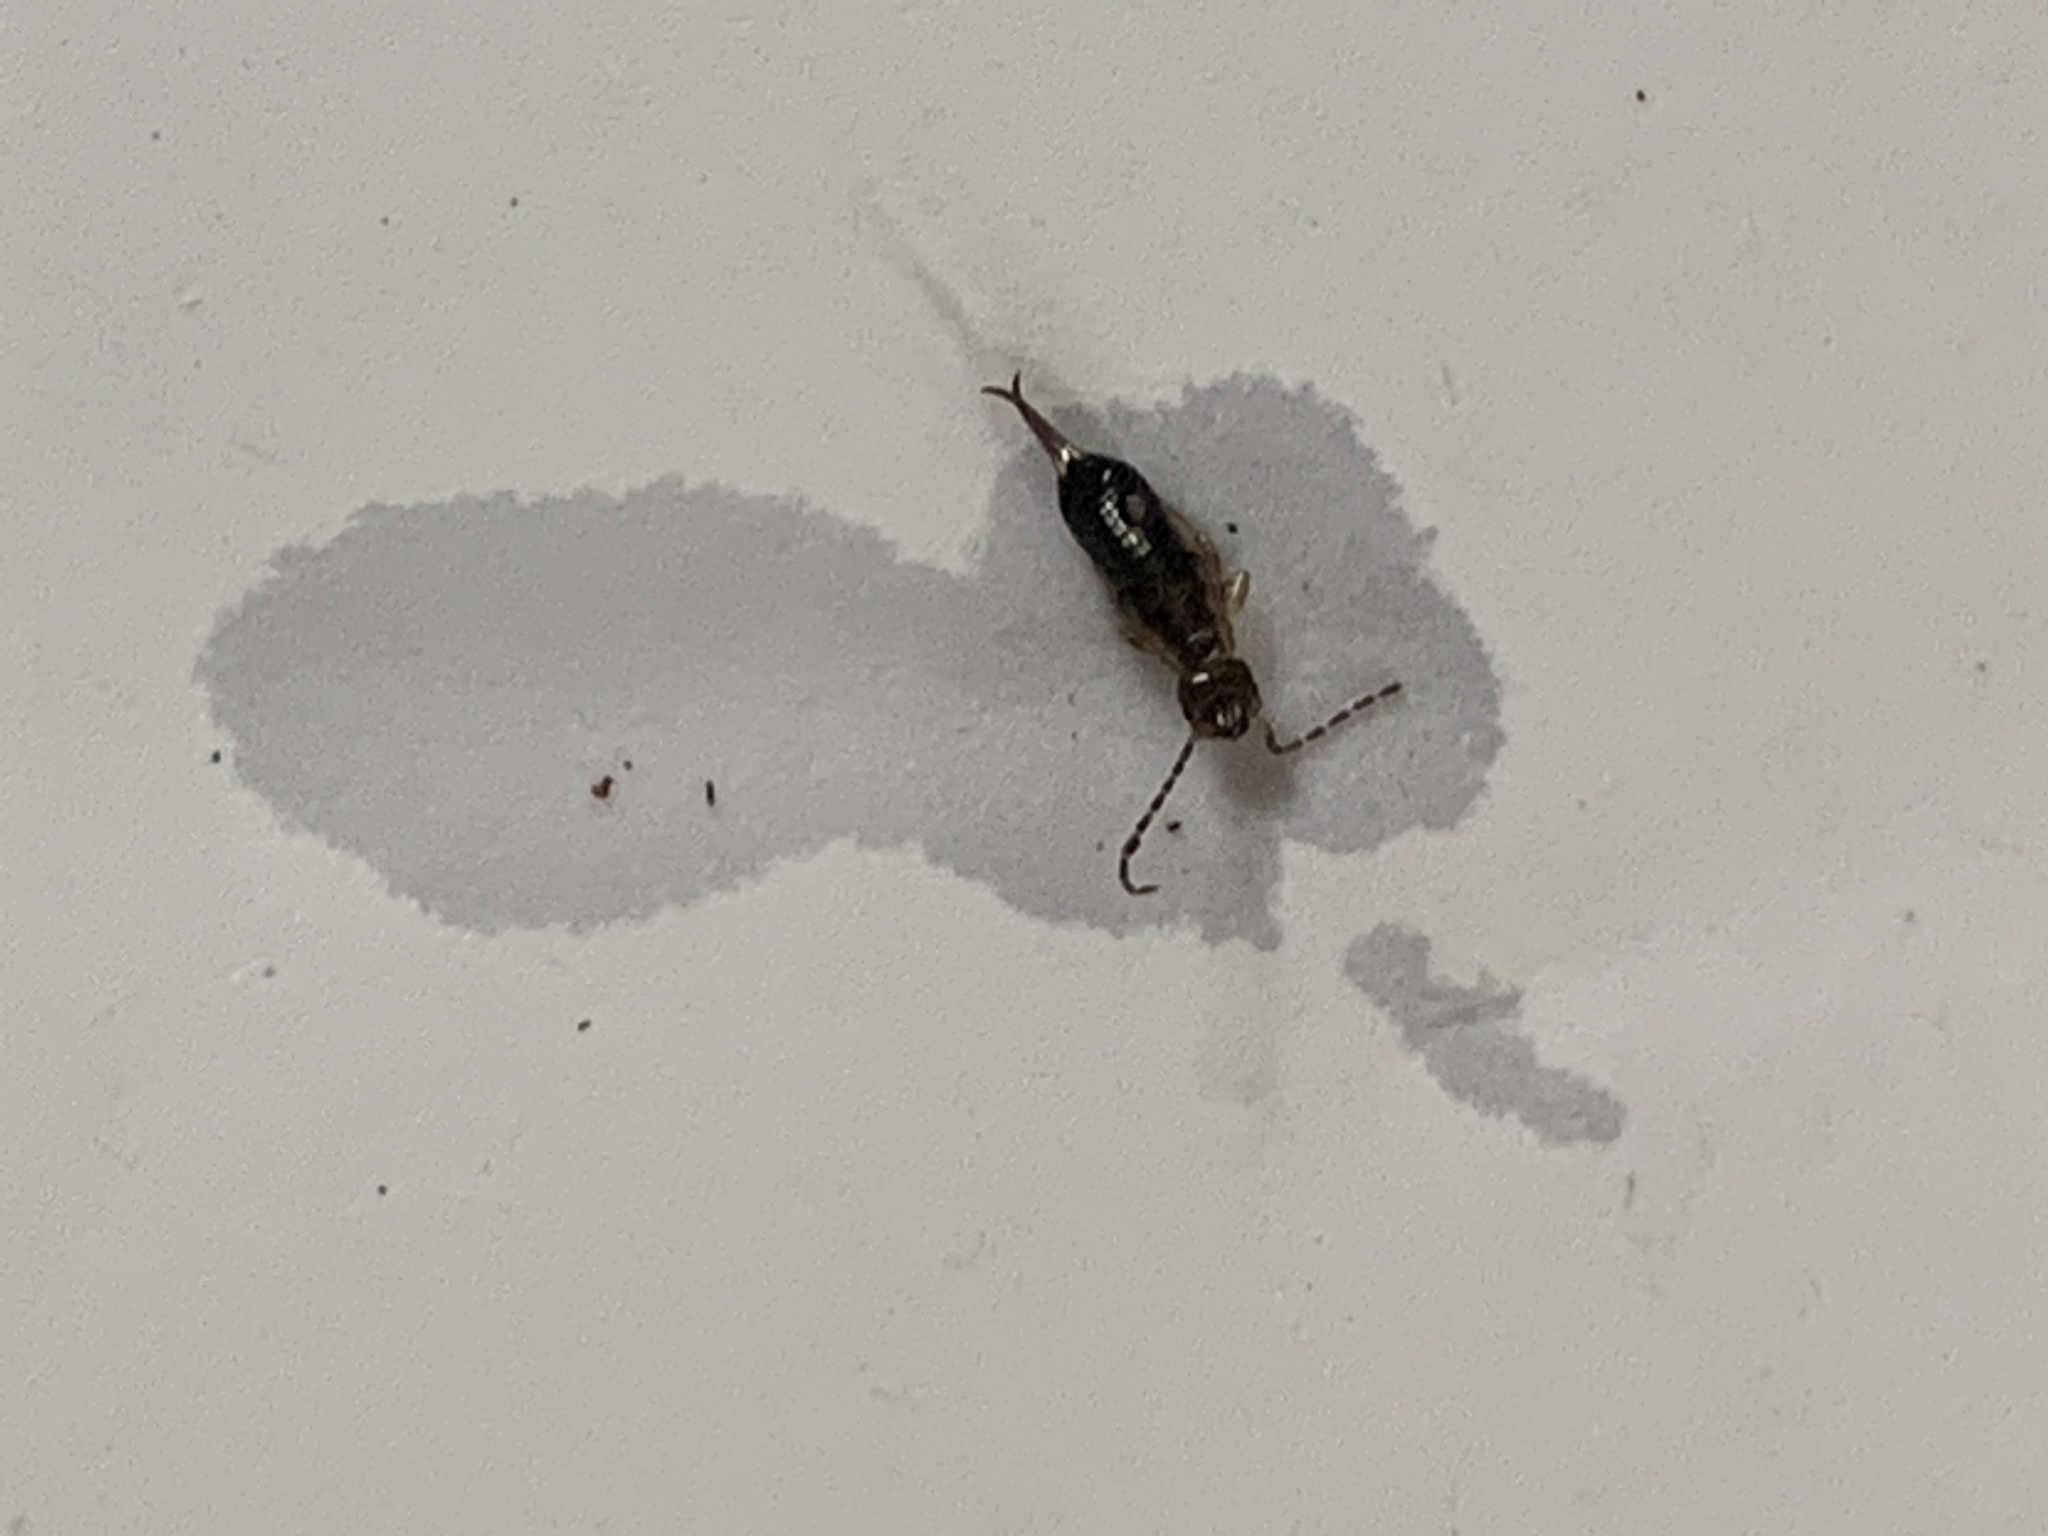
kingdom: Animalia
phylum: Arthropoda
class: Insecta
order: Dermaptera
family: Forficulidae
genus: Forficula
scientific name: Forficula
